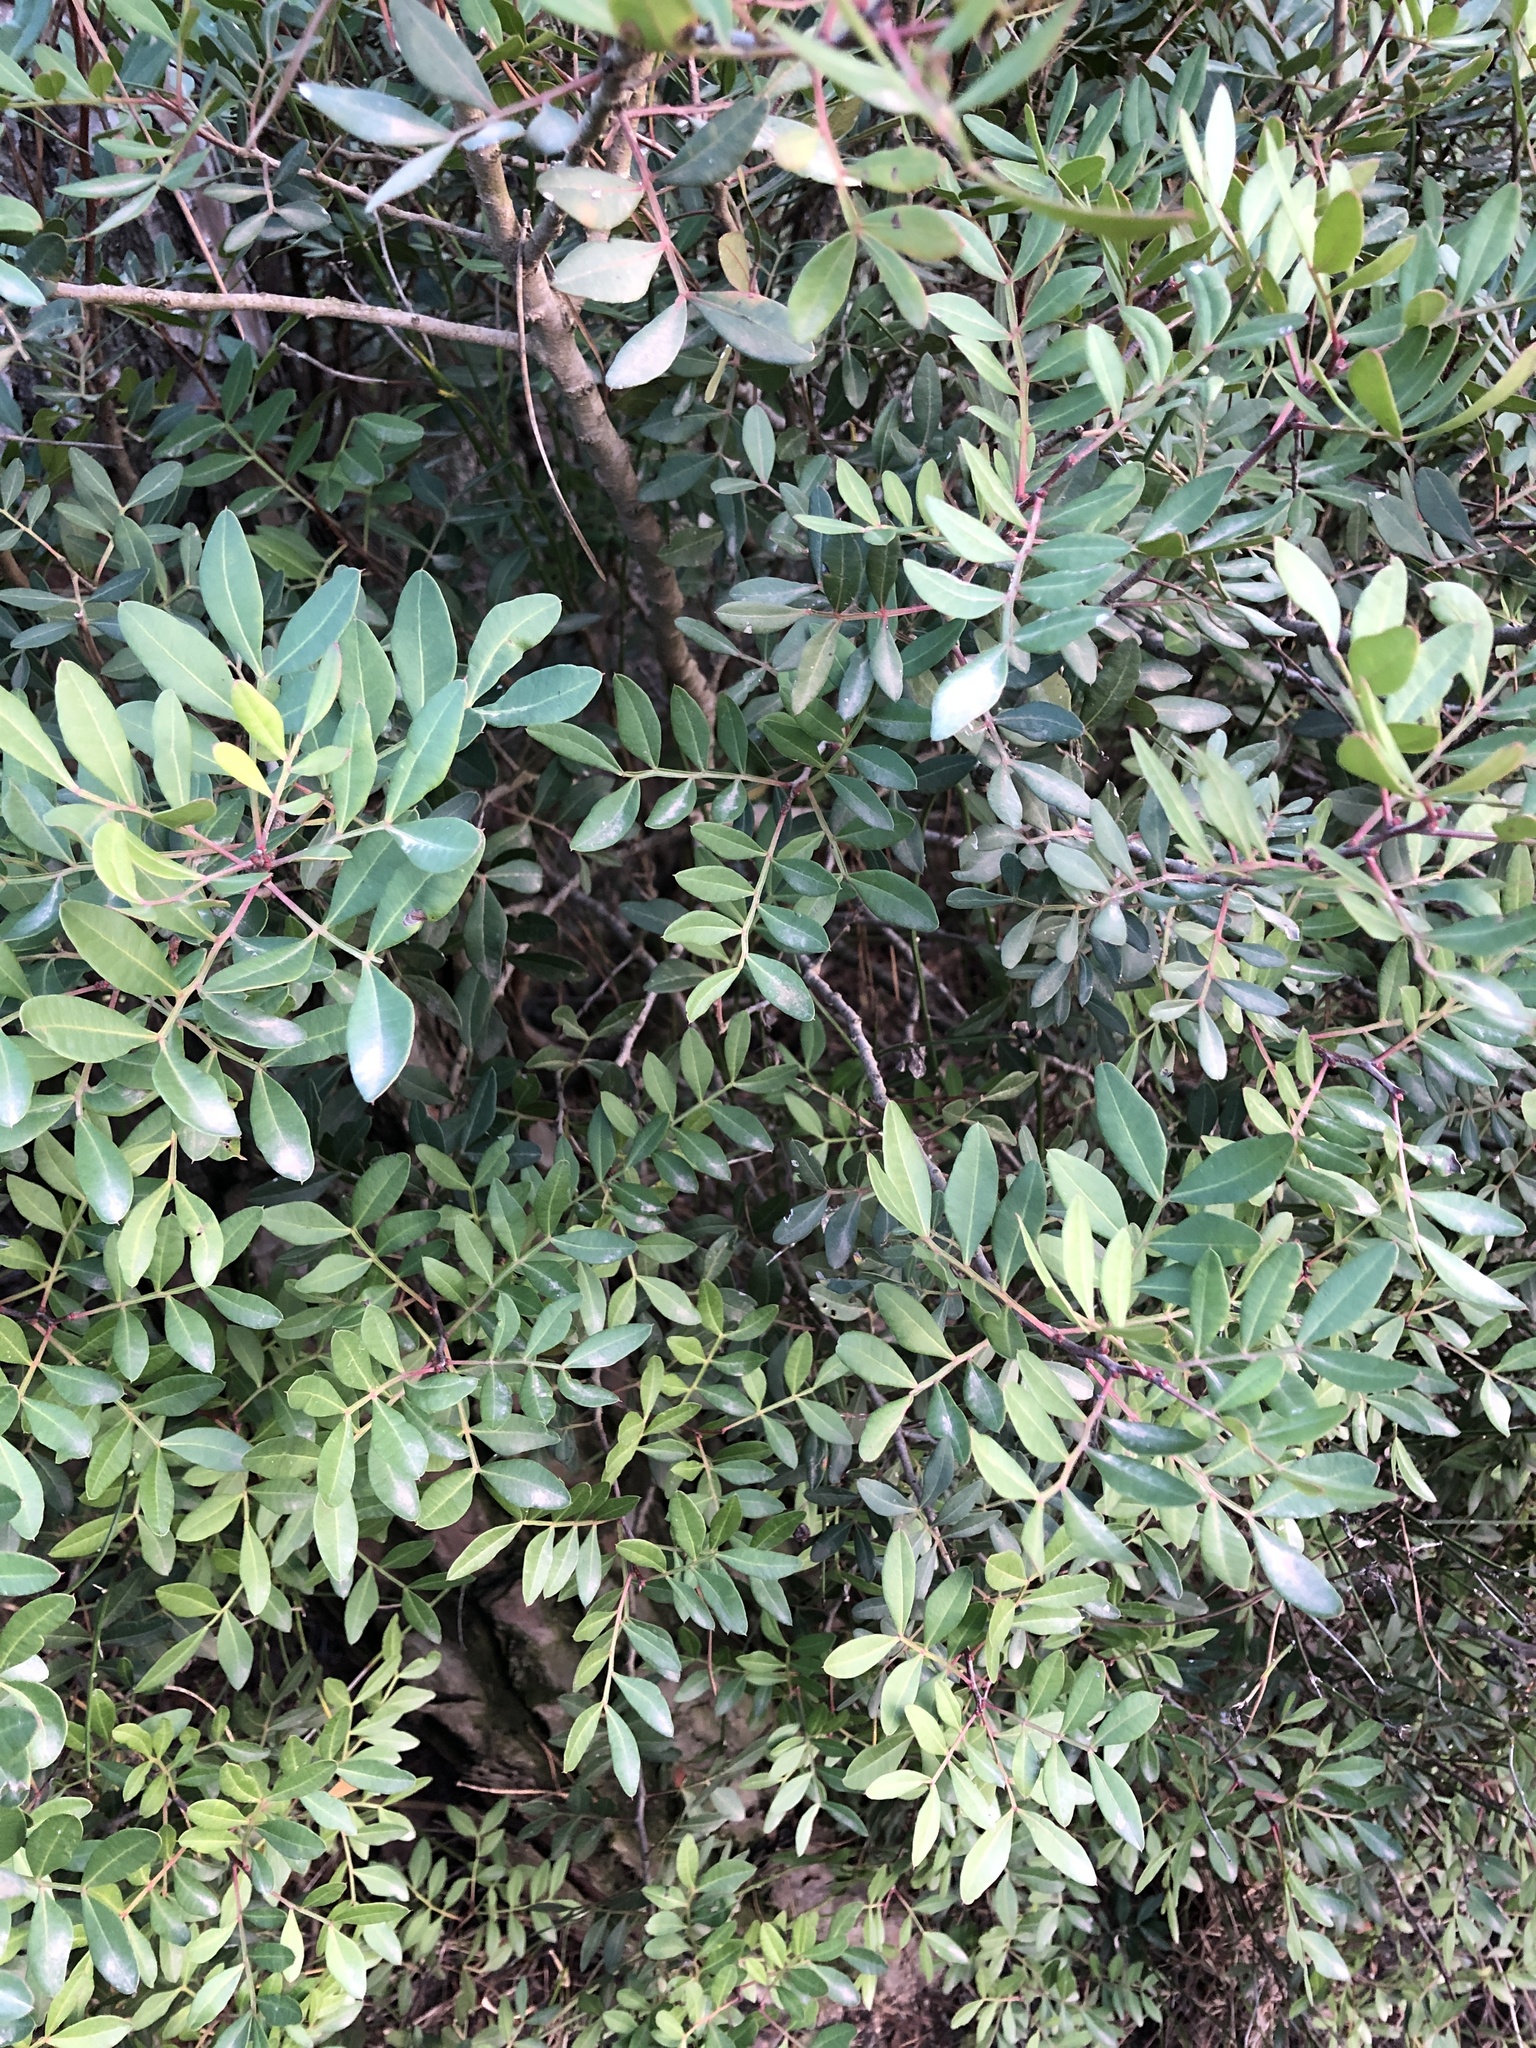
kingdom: Plantae
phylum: Tracheophyta
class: Magnoliopsida
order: Sapindales
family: Anacardiaceae
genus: Pistacia
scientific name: Pistacia lentiscus
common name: Lentisk
